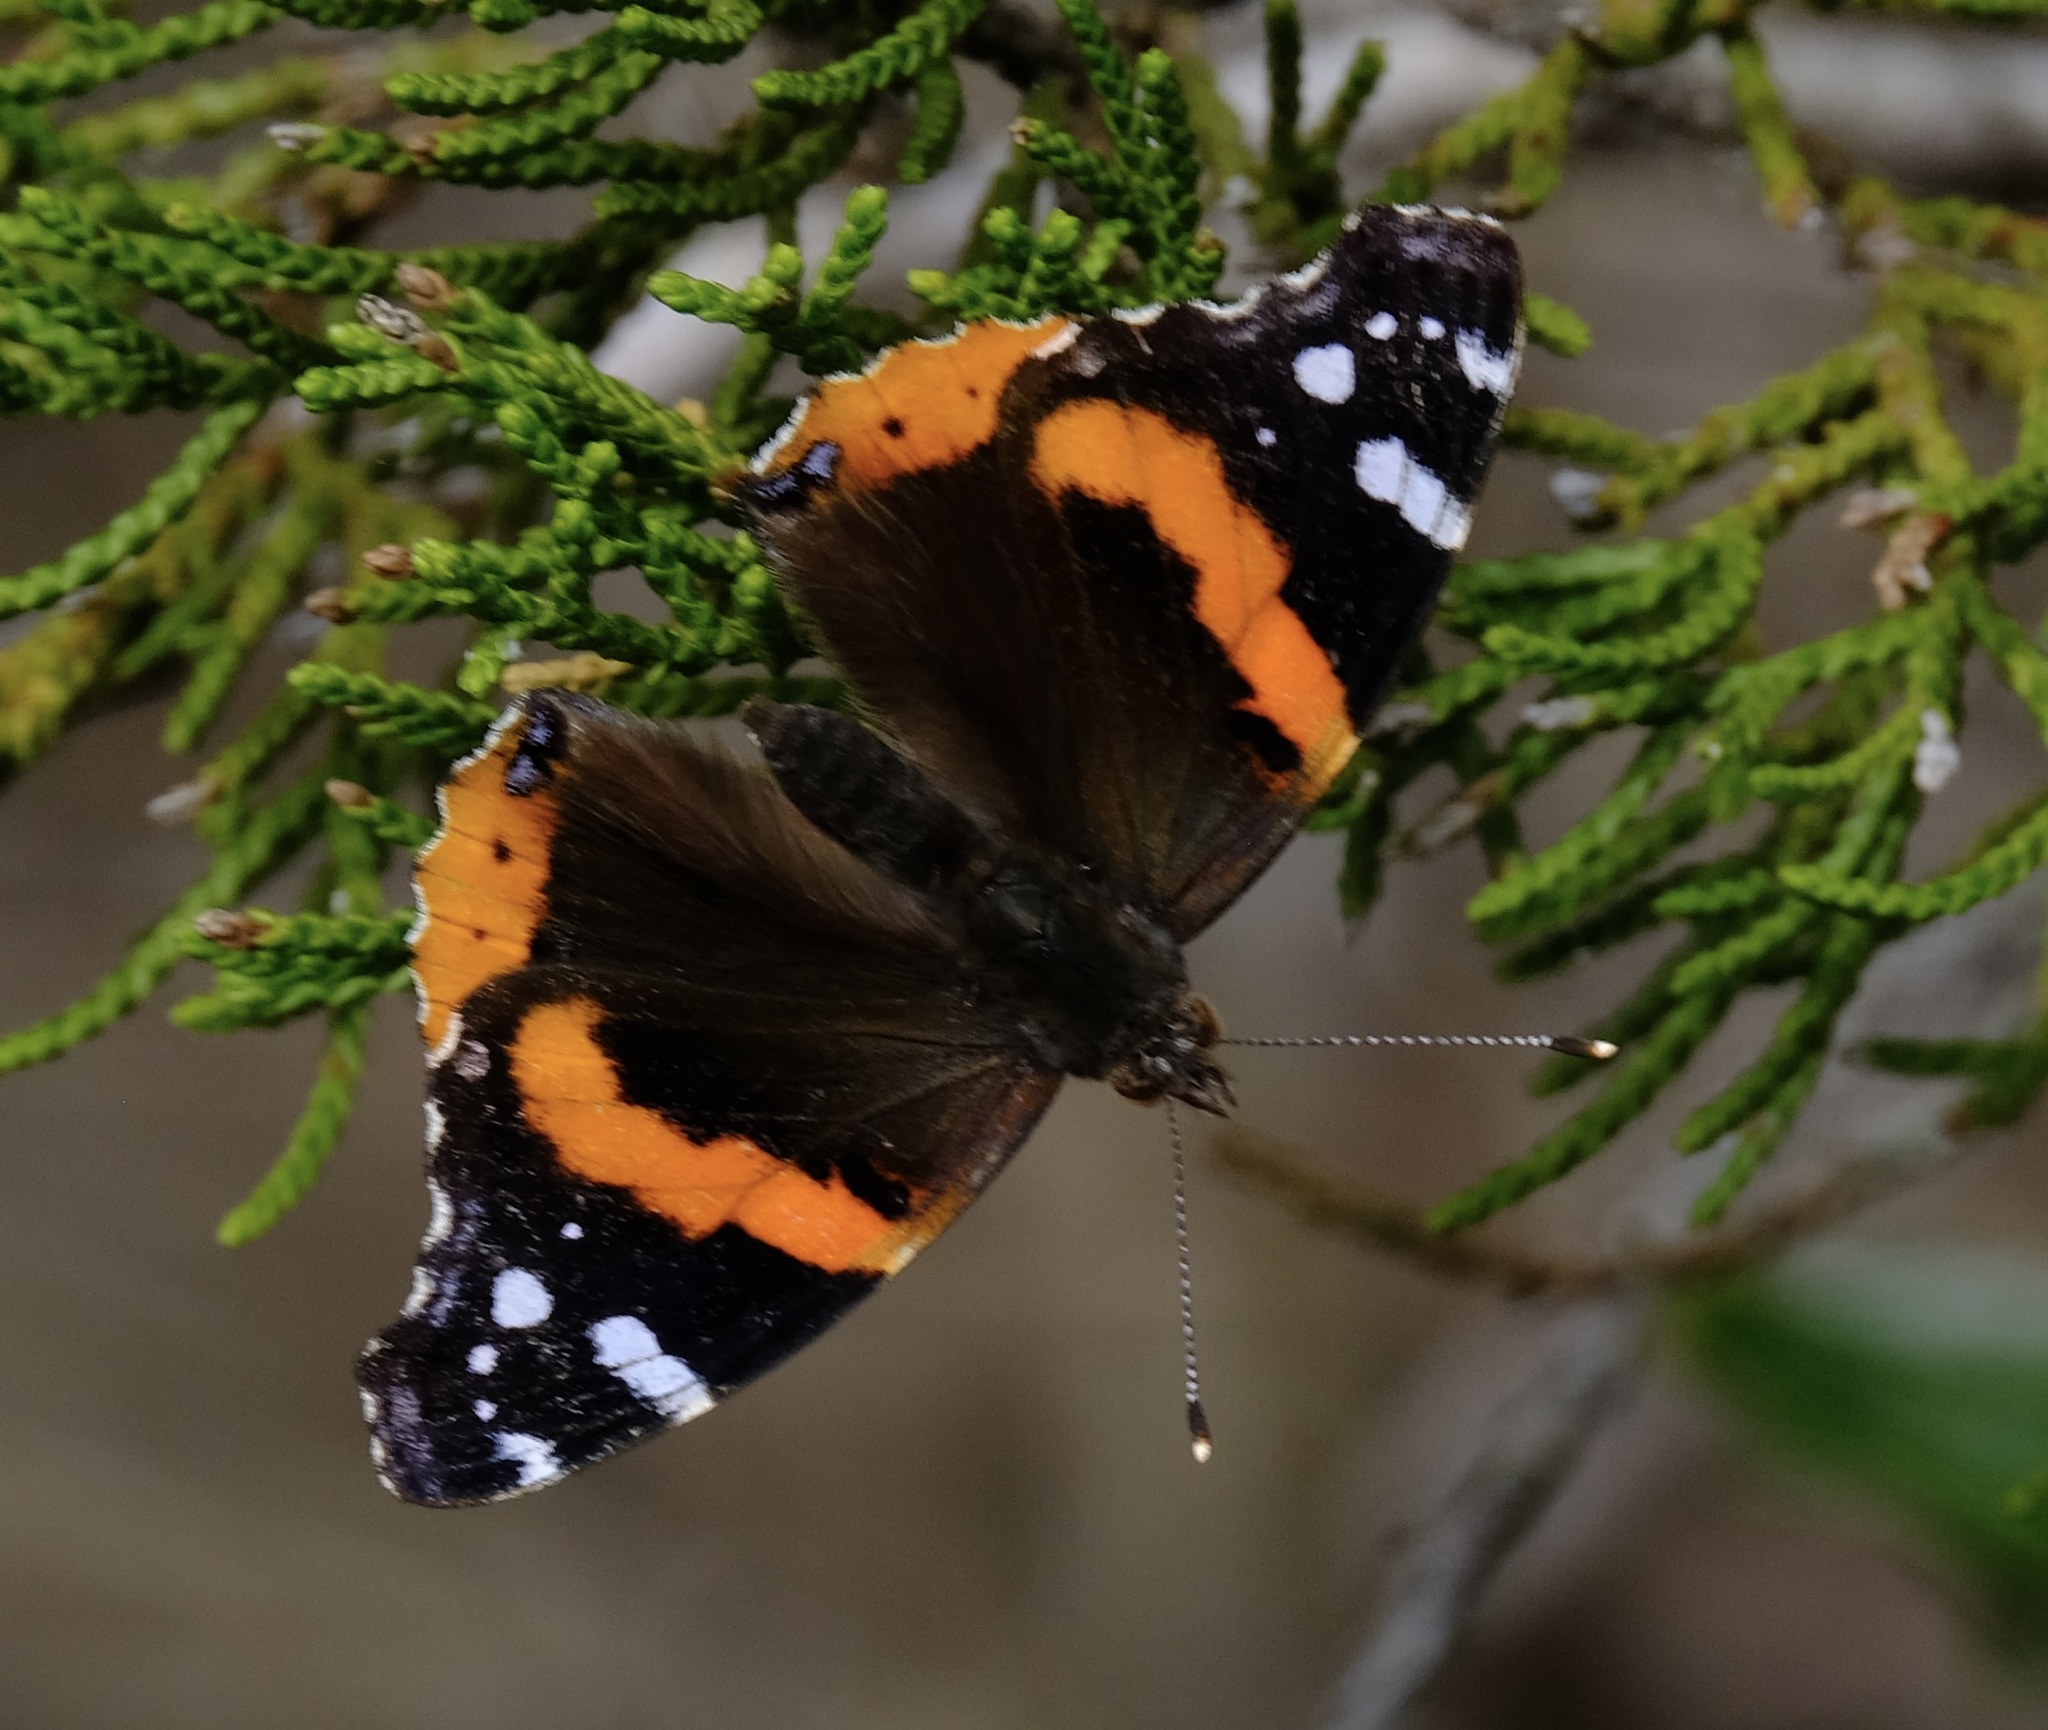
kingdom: Animalia
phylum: Arthropoda
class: Insecta
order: Lepidoptera
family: Nymphalidae
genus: Vanessa
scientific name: Vanessa atalanta
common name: Red admiral
